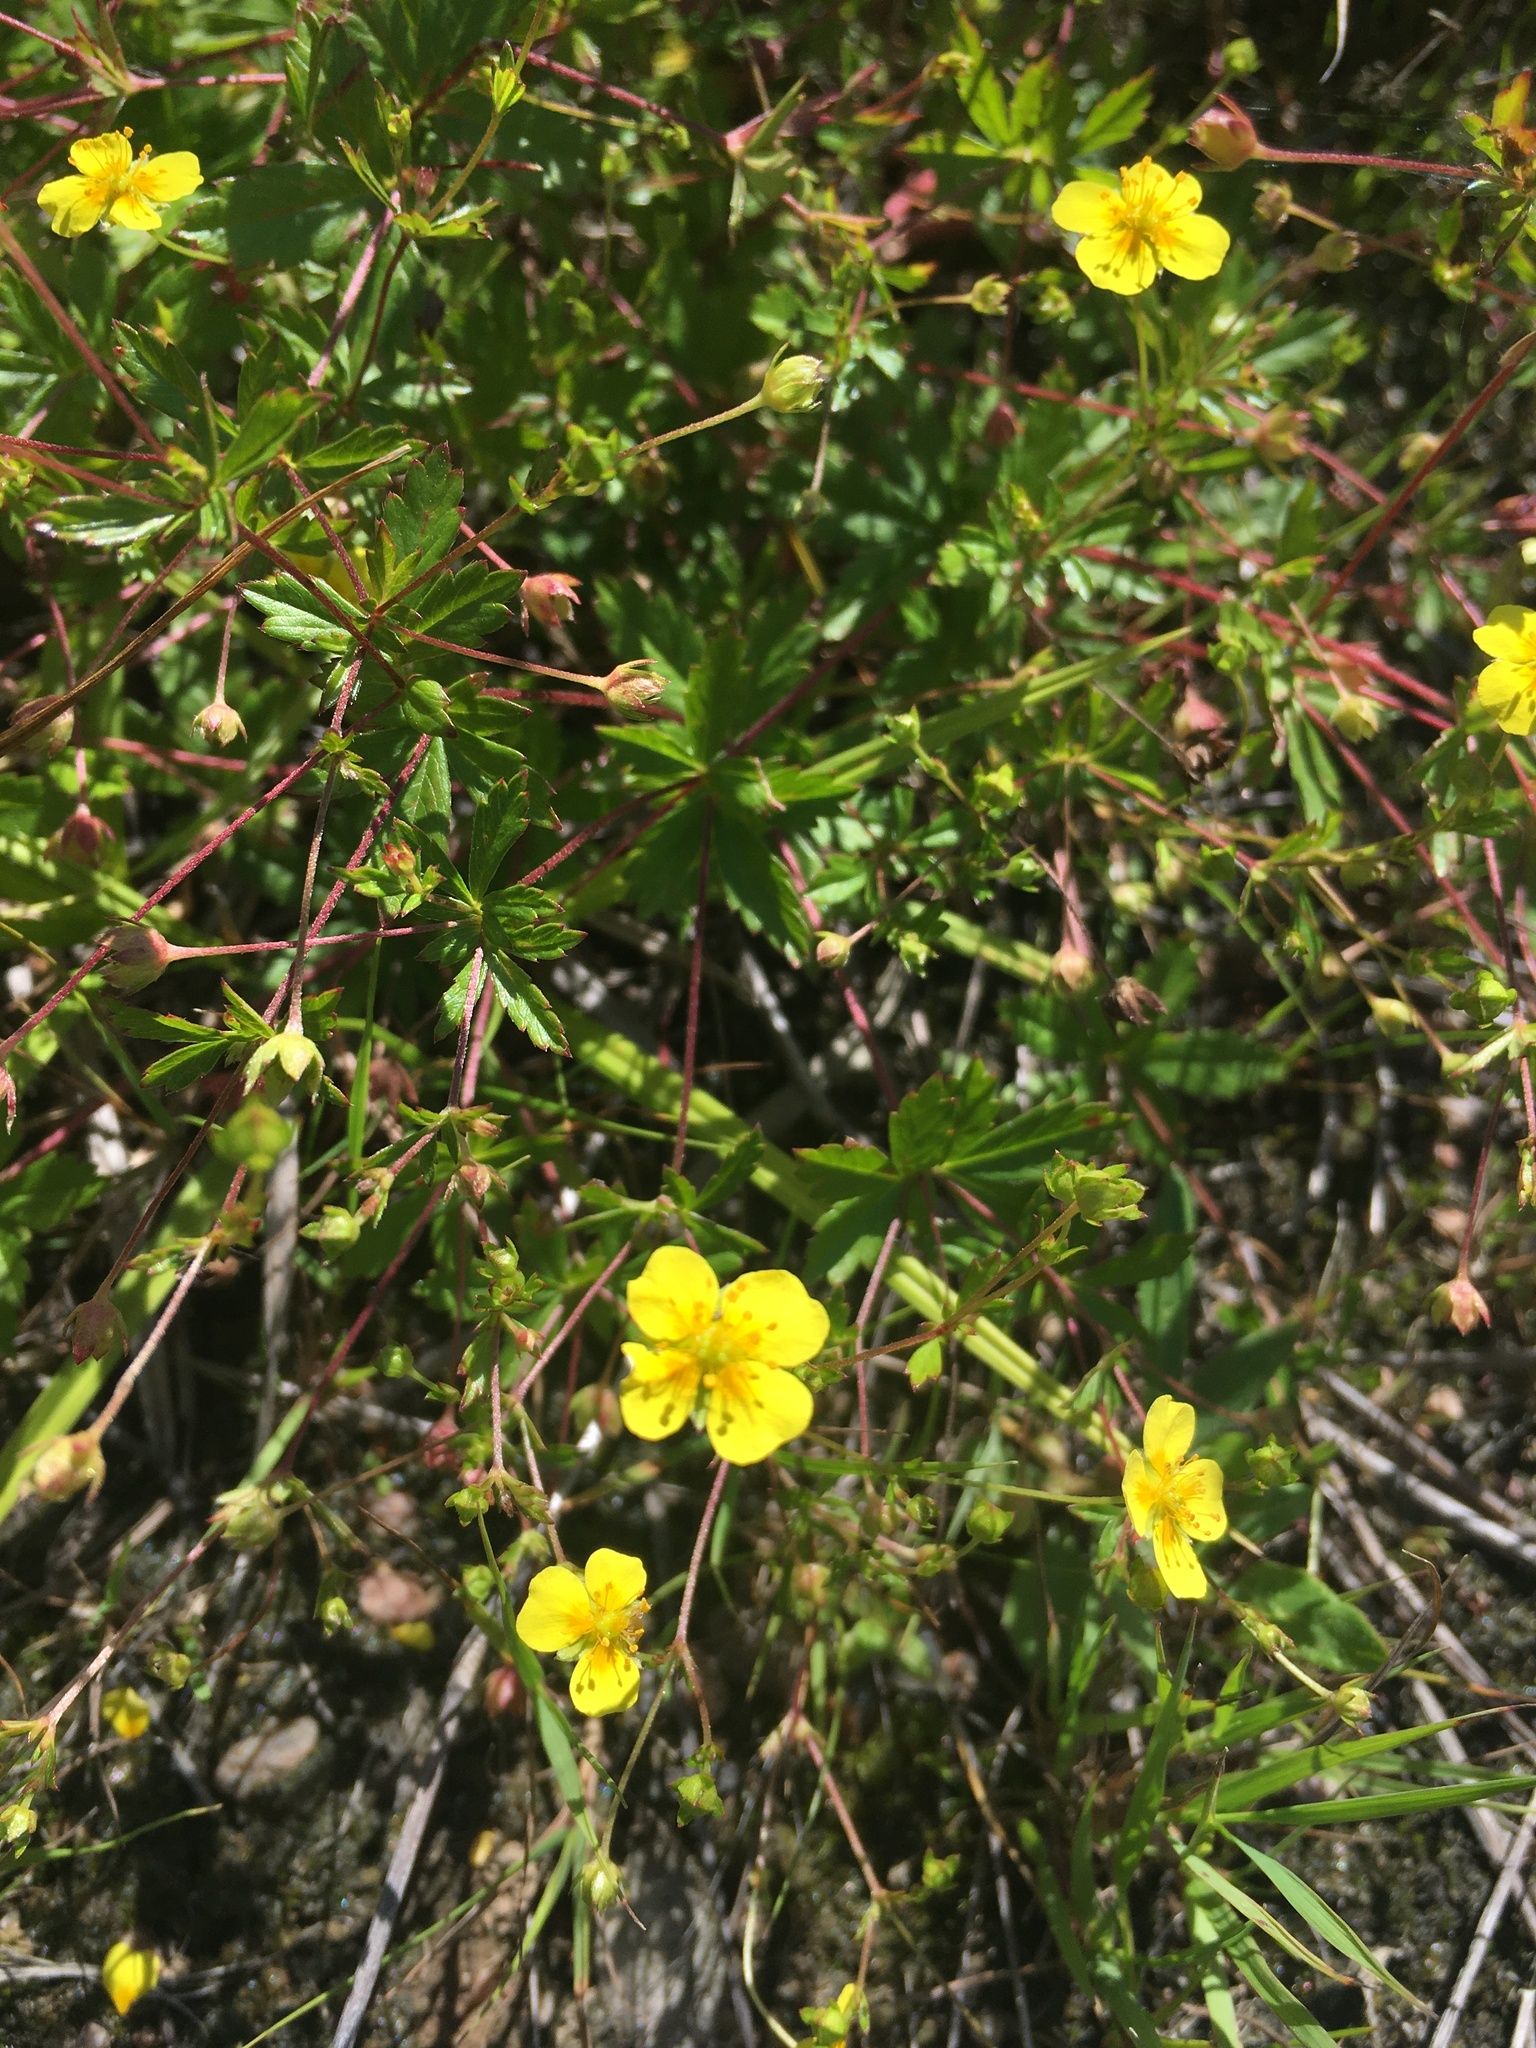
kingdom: Plantae
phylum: Tracheophyta
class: Magnoliopsida
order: Rosales
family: Rosaceae
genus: Potentilla
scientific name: Potentilla erecta
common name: Tormentil
